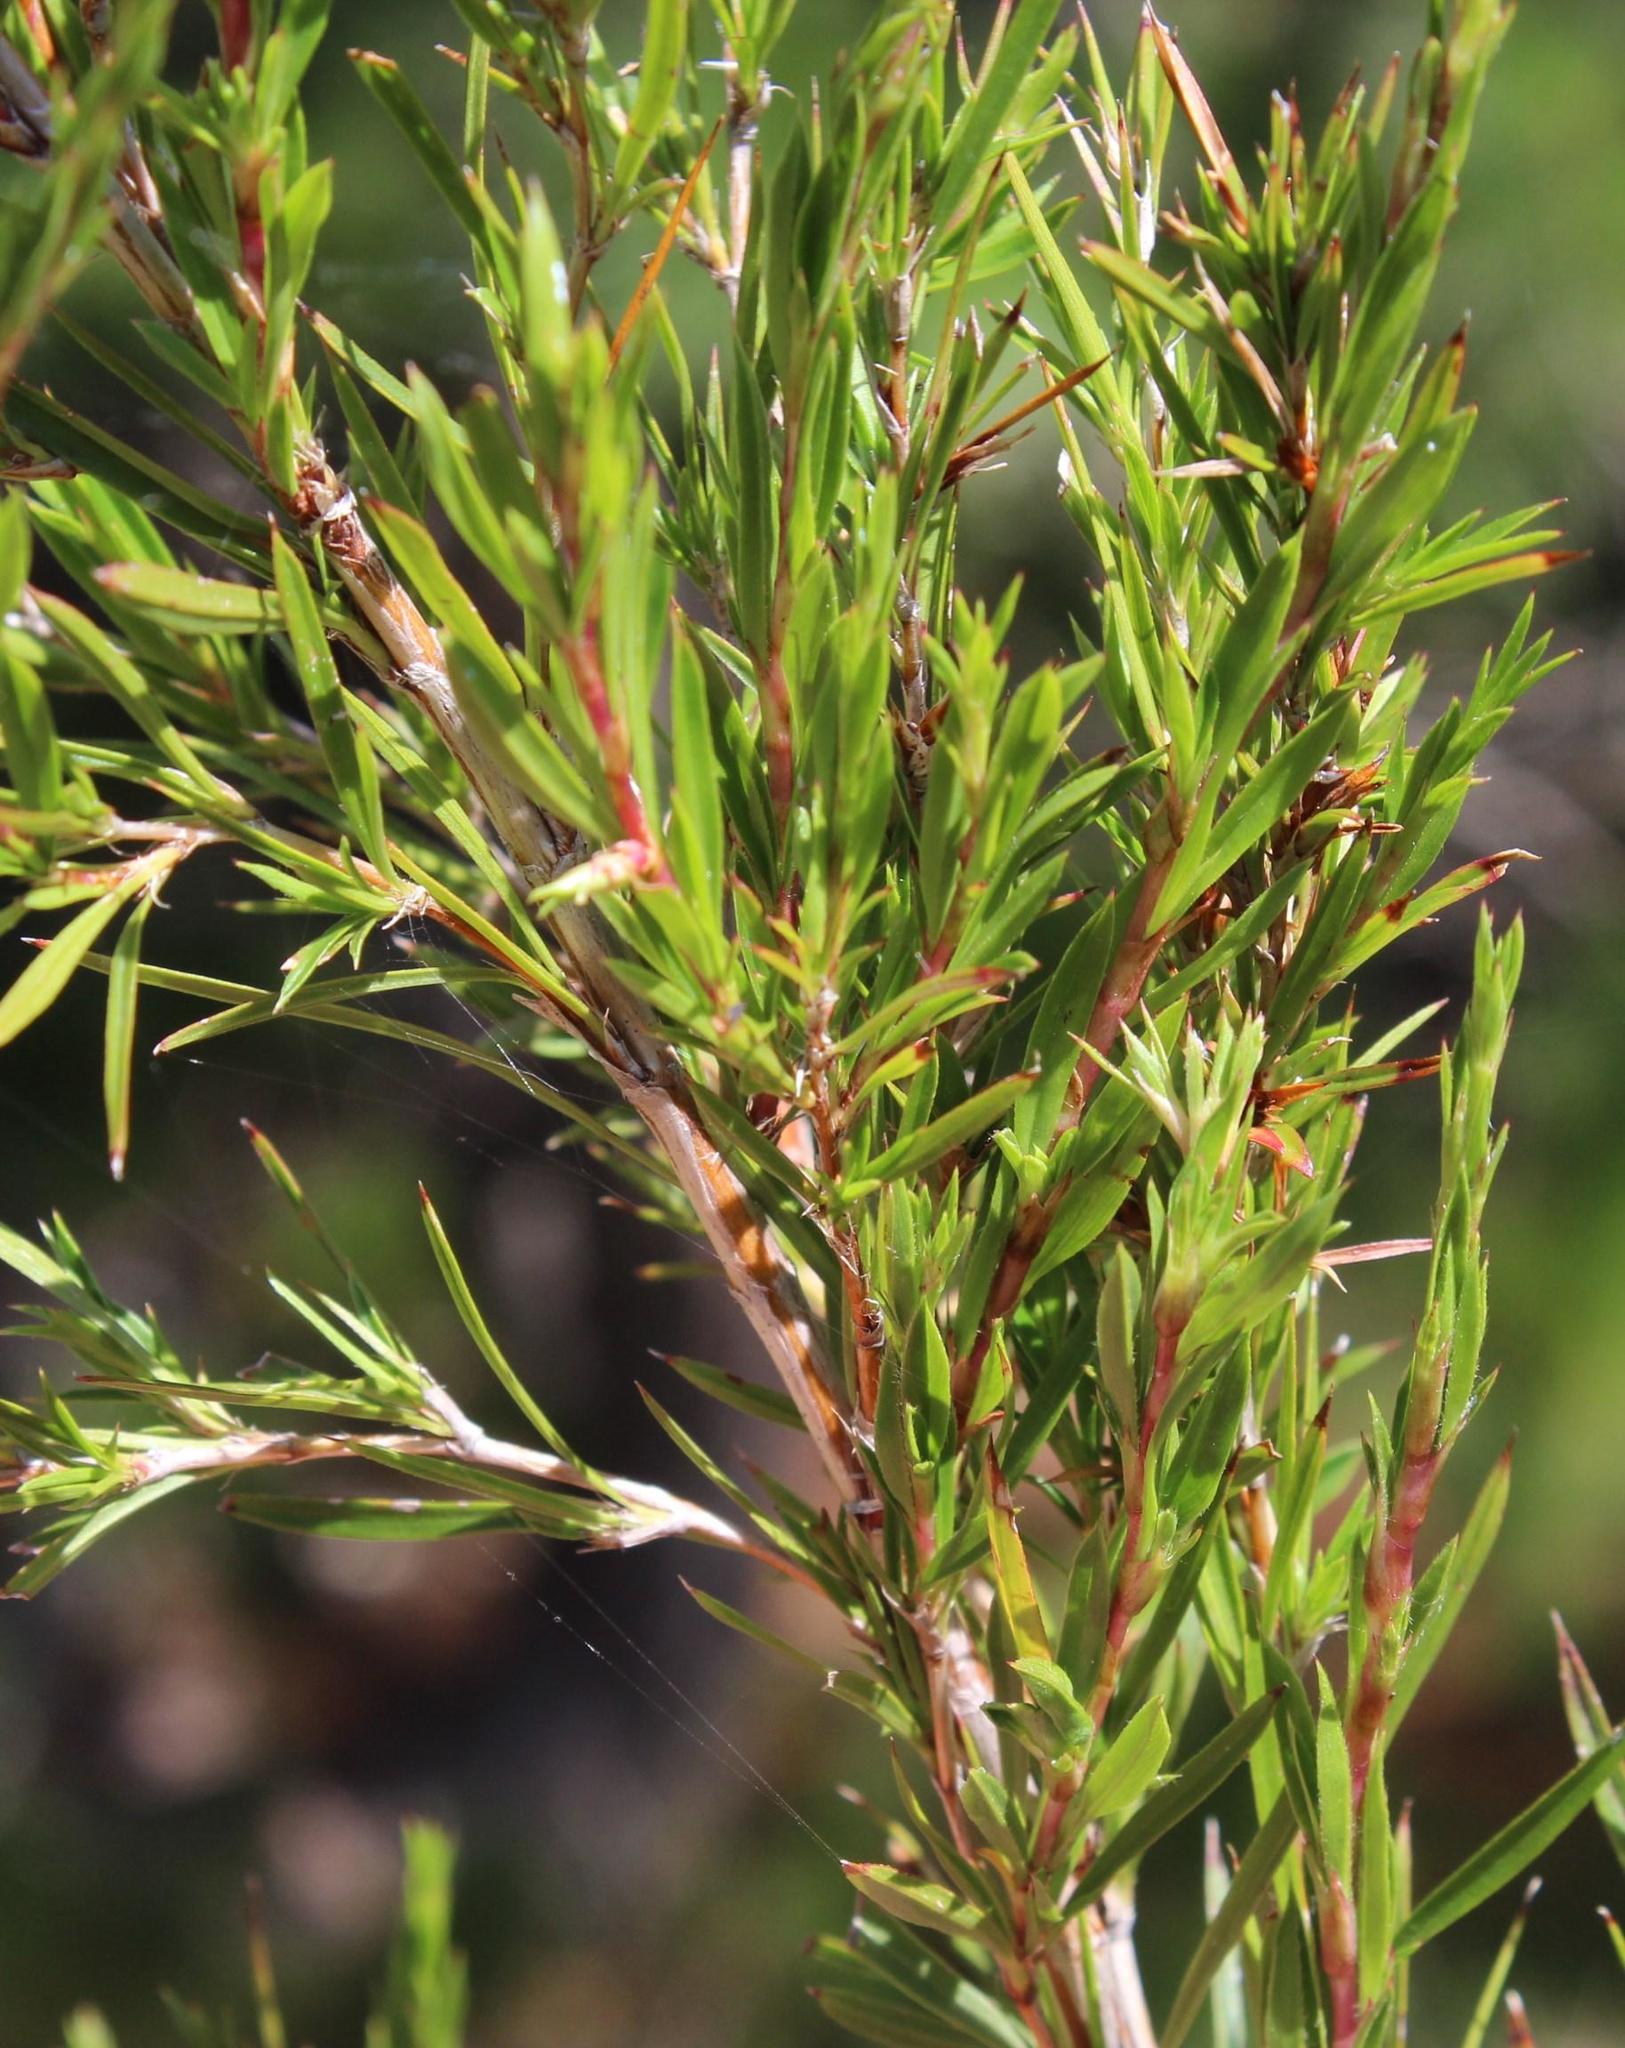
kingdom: Plantae
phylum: Tracheophyta
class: Magnoliopsida
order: Rosales
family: Rosaceae
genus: Cliffortia
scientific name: Cliffortia strobilifera
